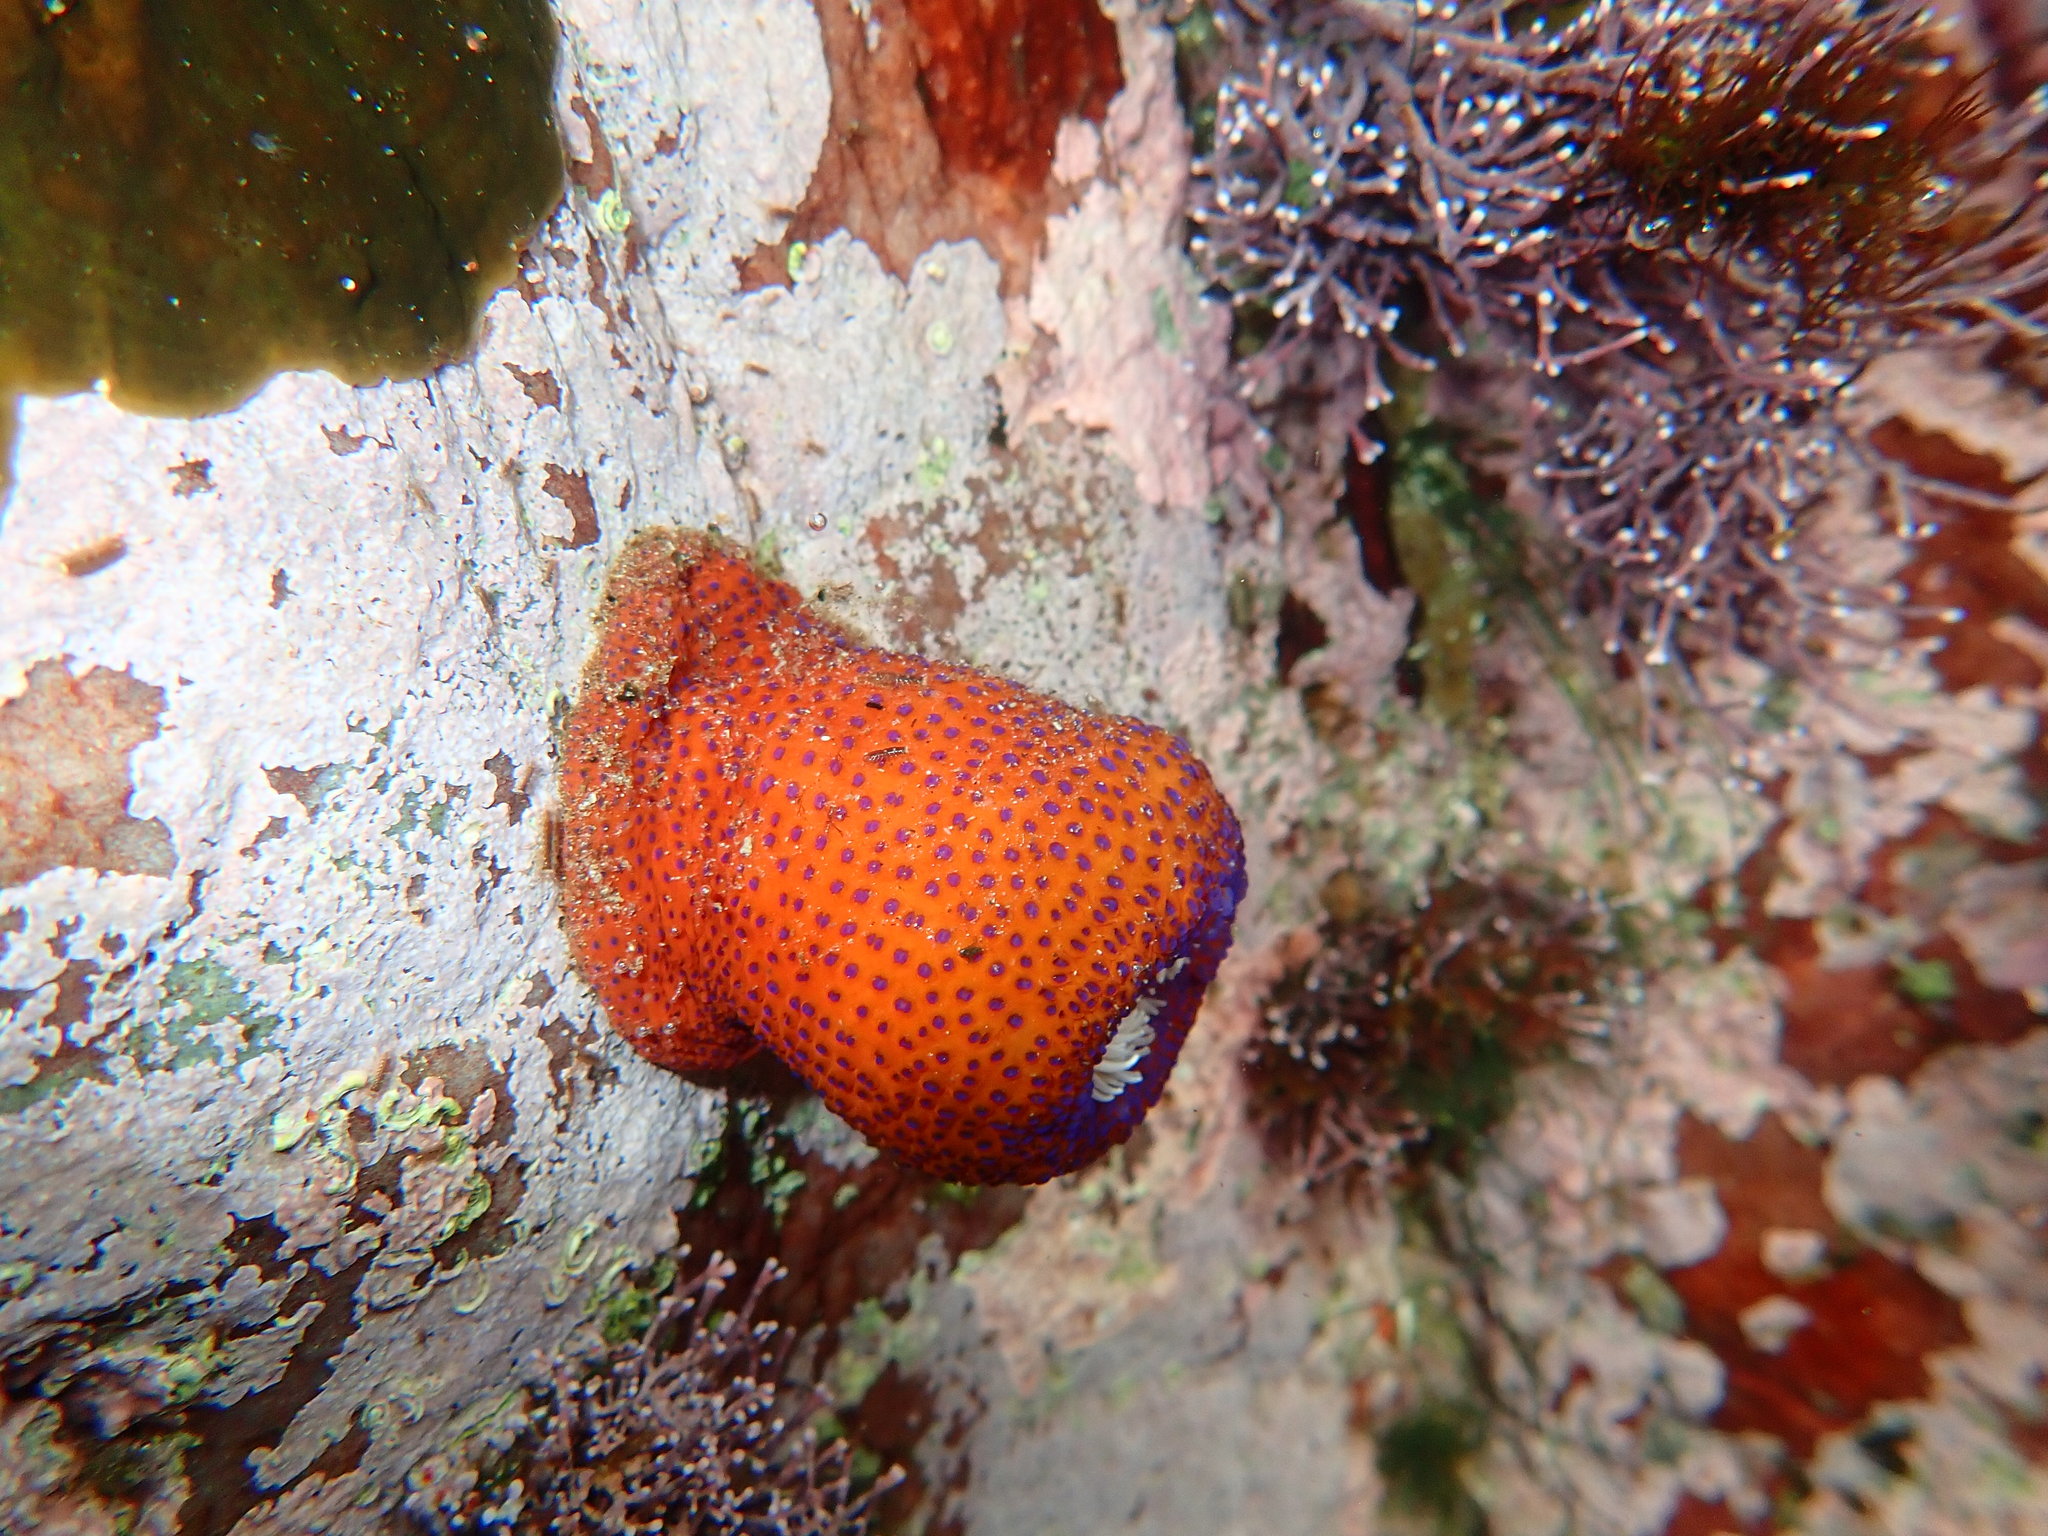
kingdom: Animalia
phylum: Cnidaria
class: Anthozoa
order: Actiniaria
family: Actiniidae
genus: Bunodosoma
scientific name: Bunodosoma capense
